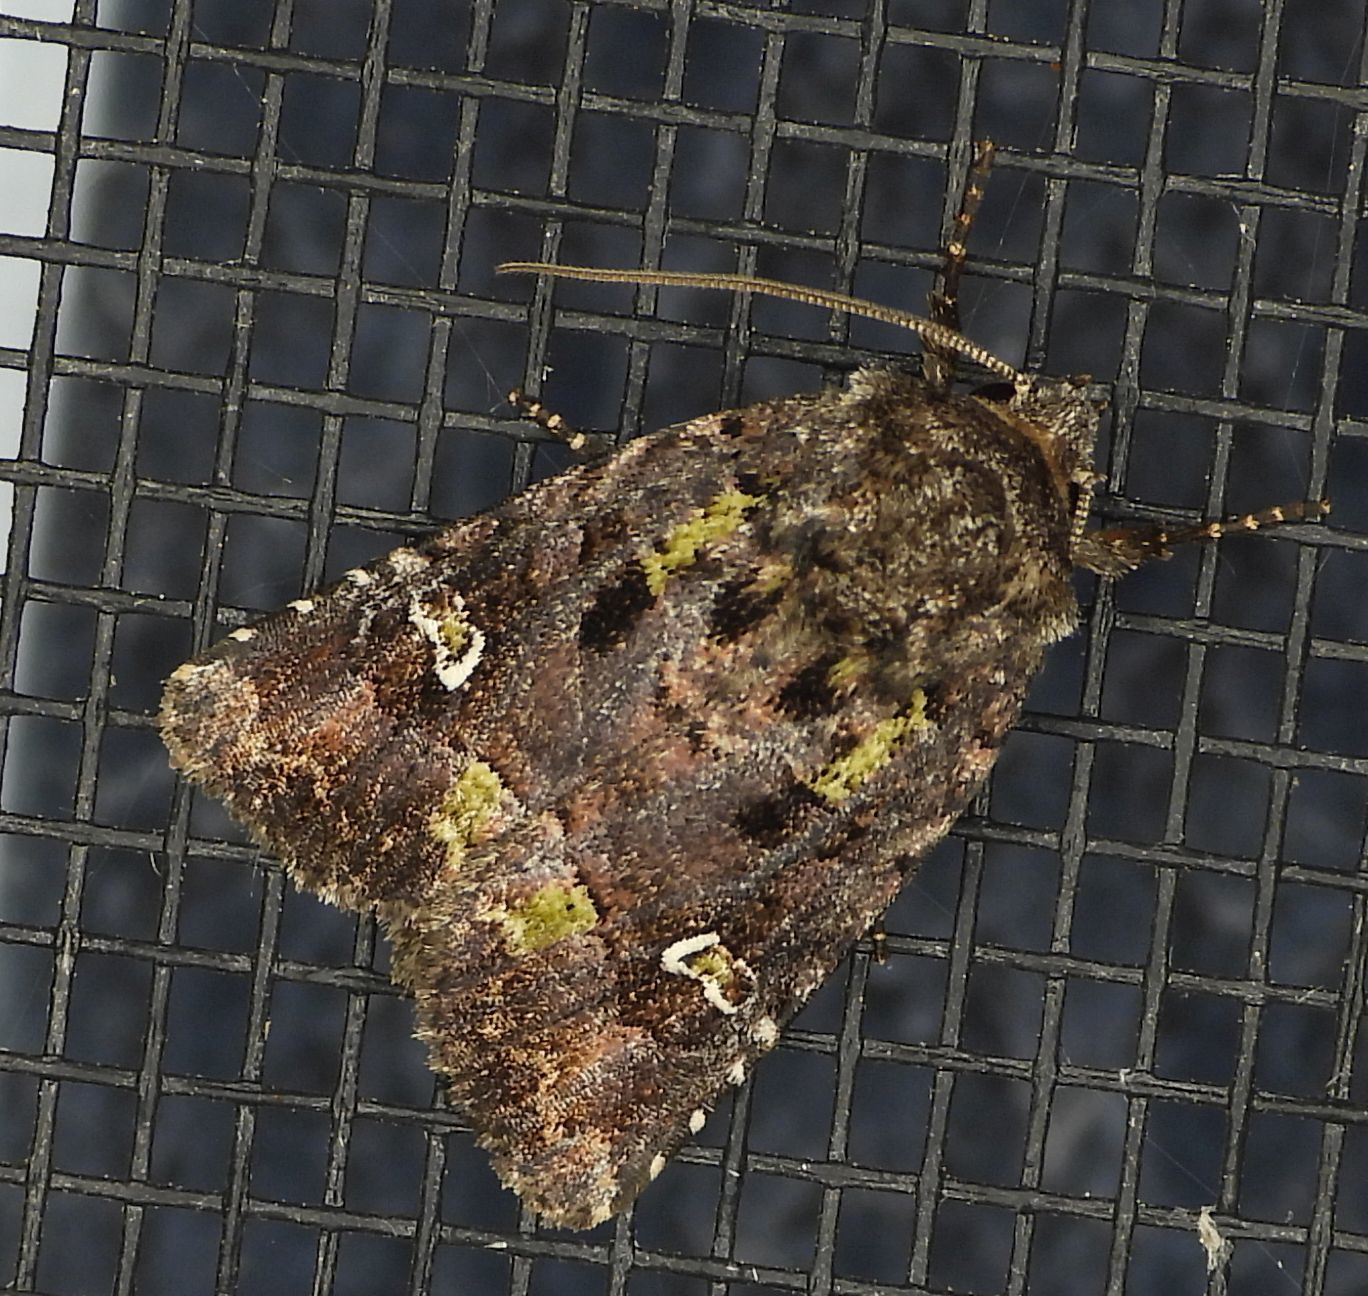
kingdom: Animalia
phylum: Arthropoda
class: Insecta
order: Lepidoptera
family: Noctuidae
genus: Lacinipolia
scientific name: Lacinipolia renigera
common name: Kidney-spotted minor
